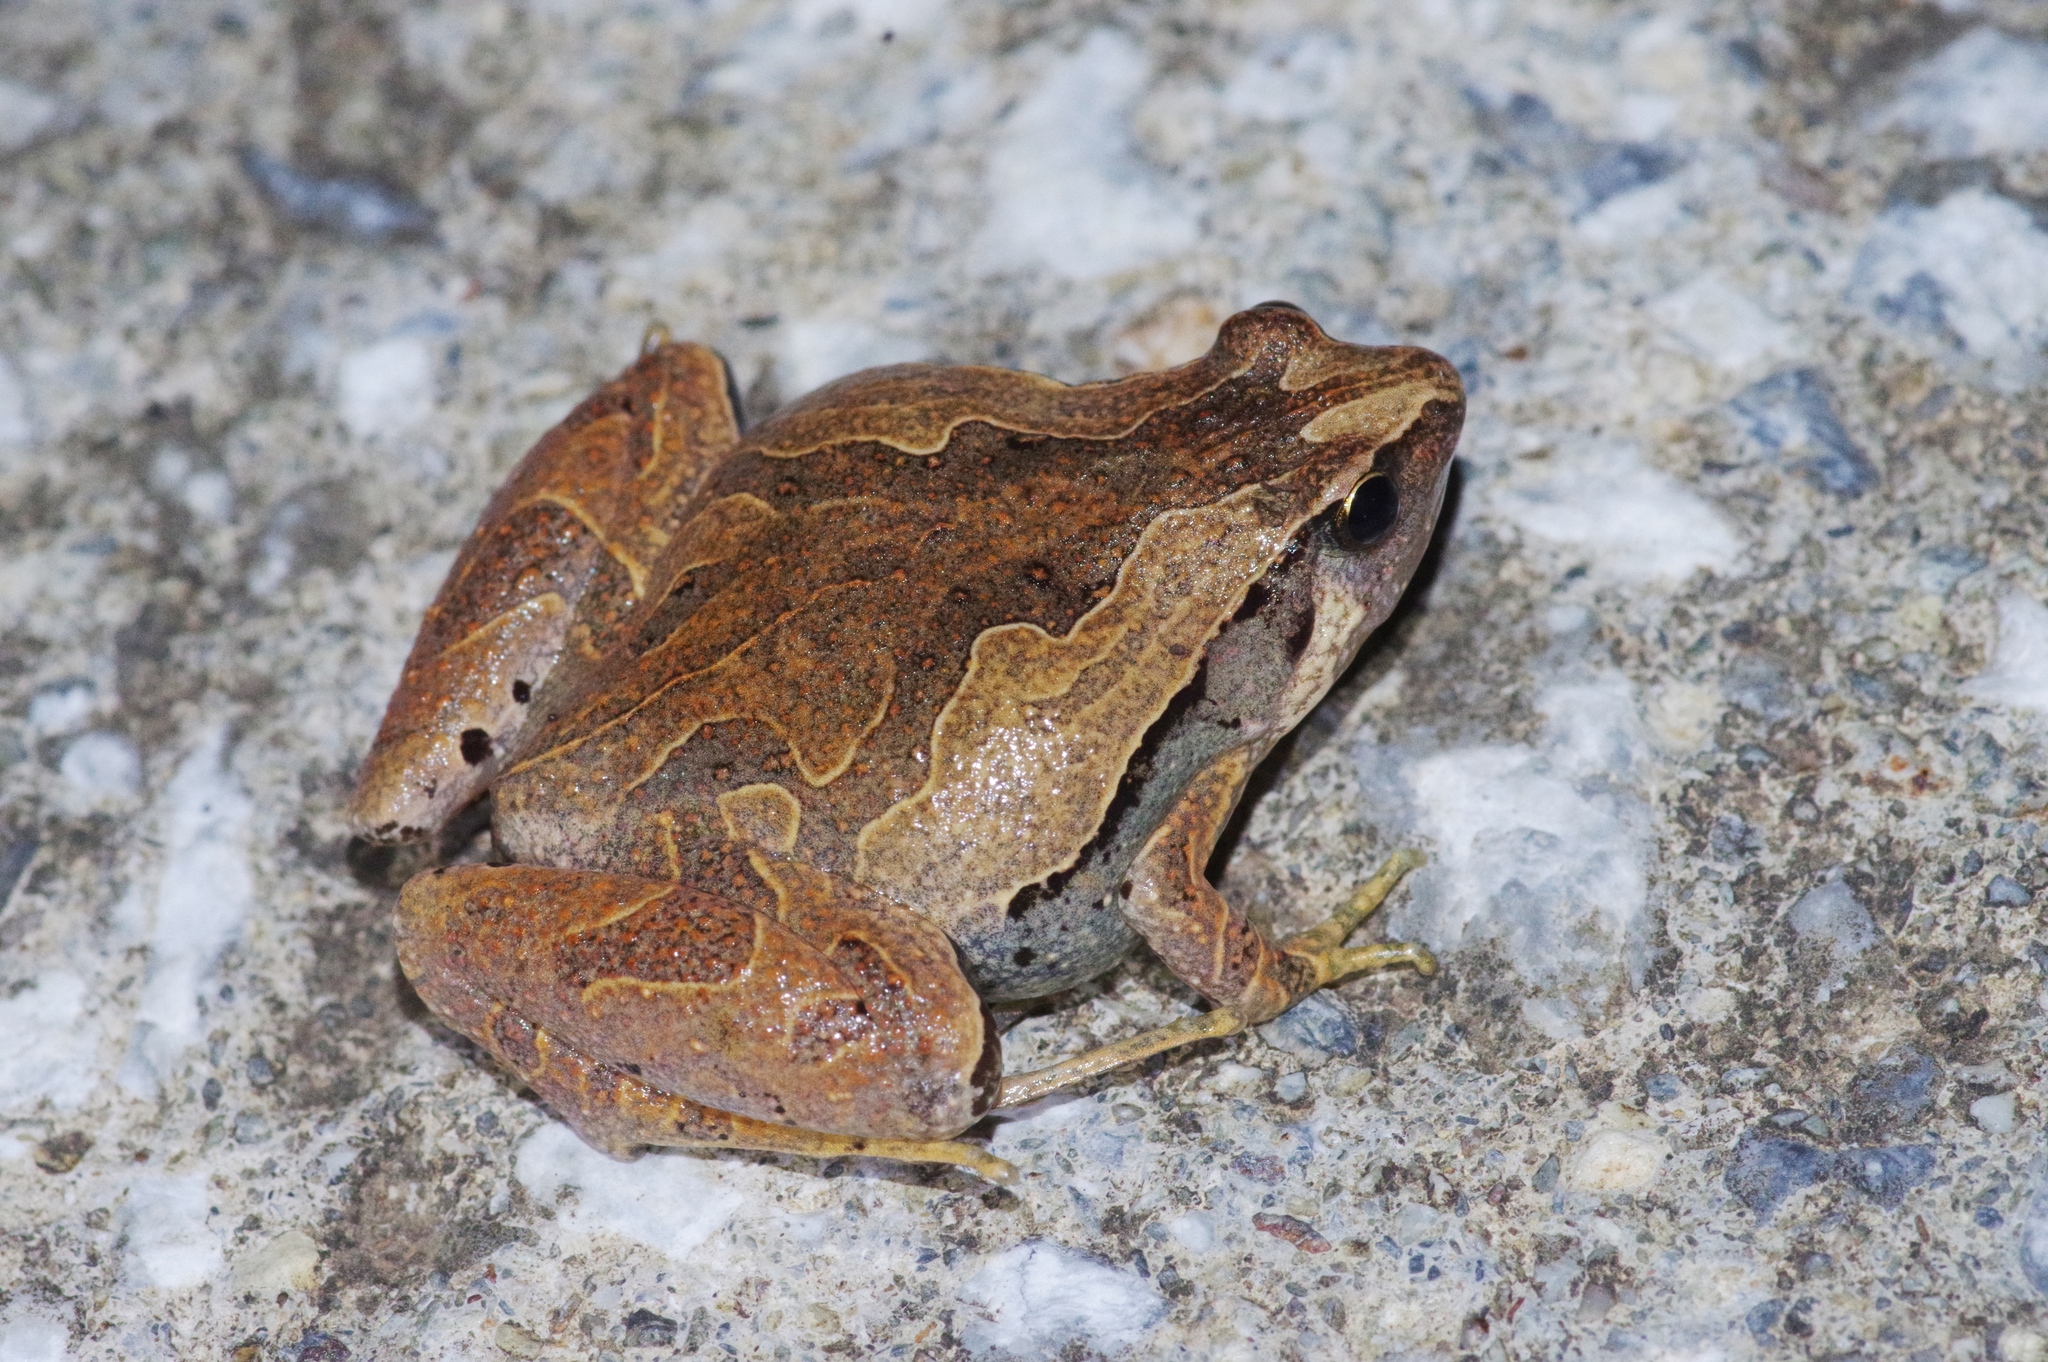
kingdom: Animalia
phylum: Chordata
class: Amphibia
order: Anura
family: Microhylidae
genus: Microhyla
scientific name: Microhyla okinavensis
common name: Okinawa narrow-mouthed toad
